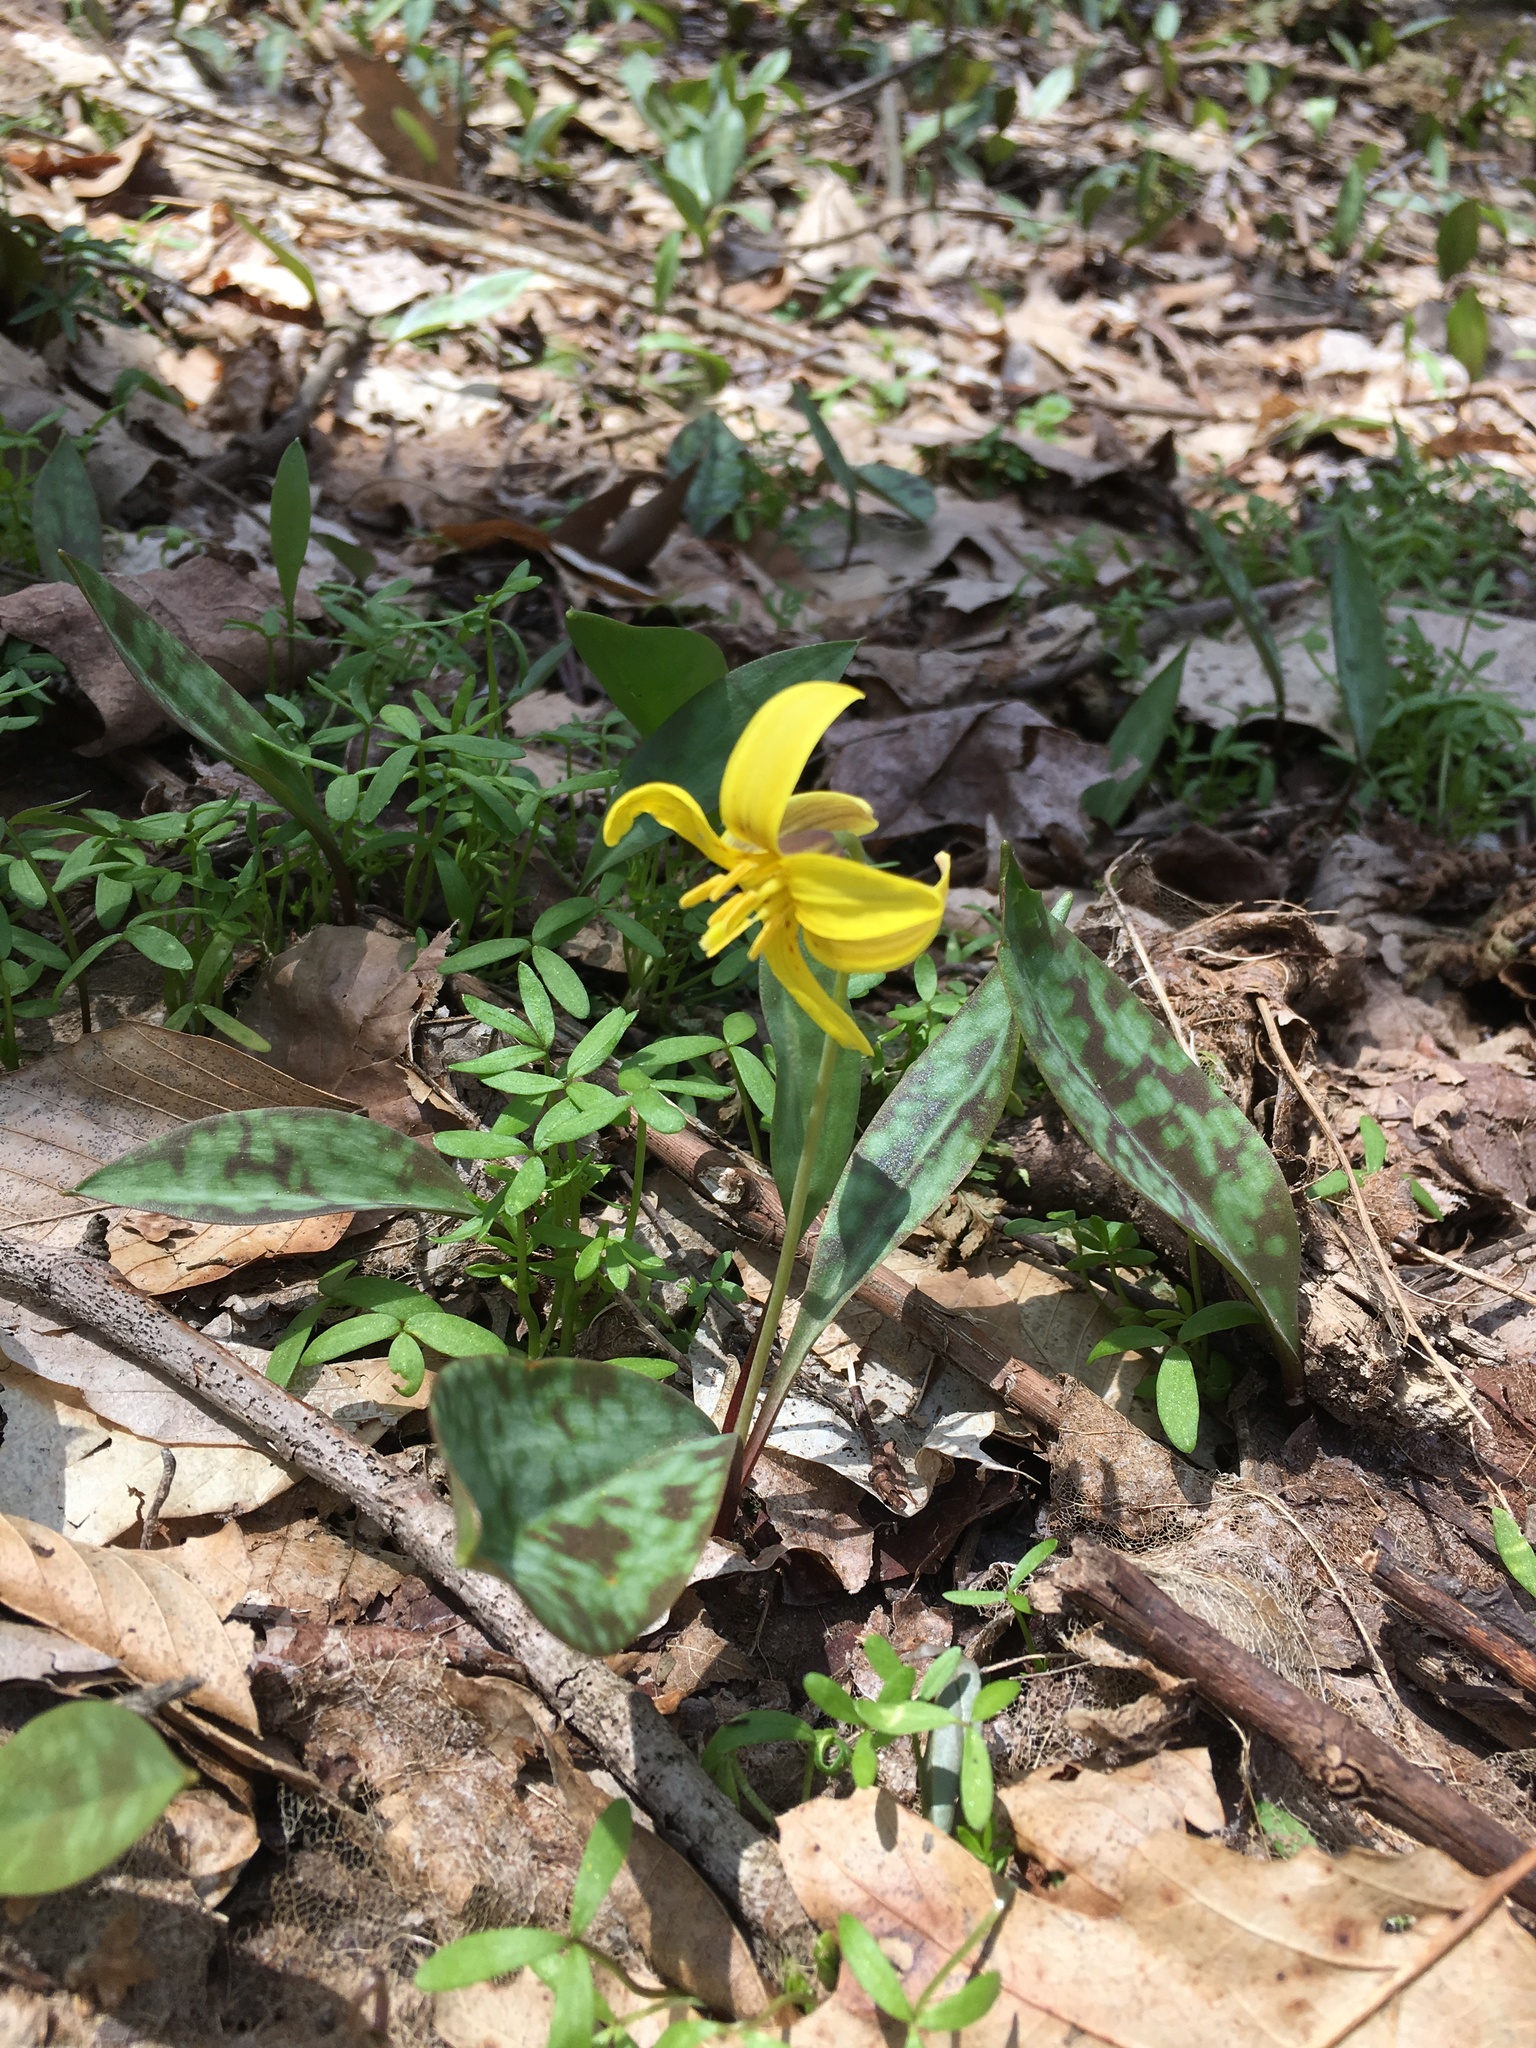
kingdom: Plantae
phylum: Tracheophyta
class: Liliopsida
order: Liliales
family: Liliaceae
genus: Erythronium
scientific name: Erythronium americanum
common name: Yellow adder's-tongue
